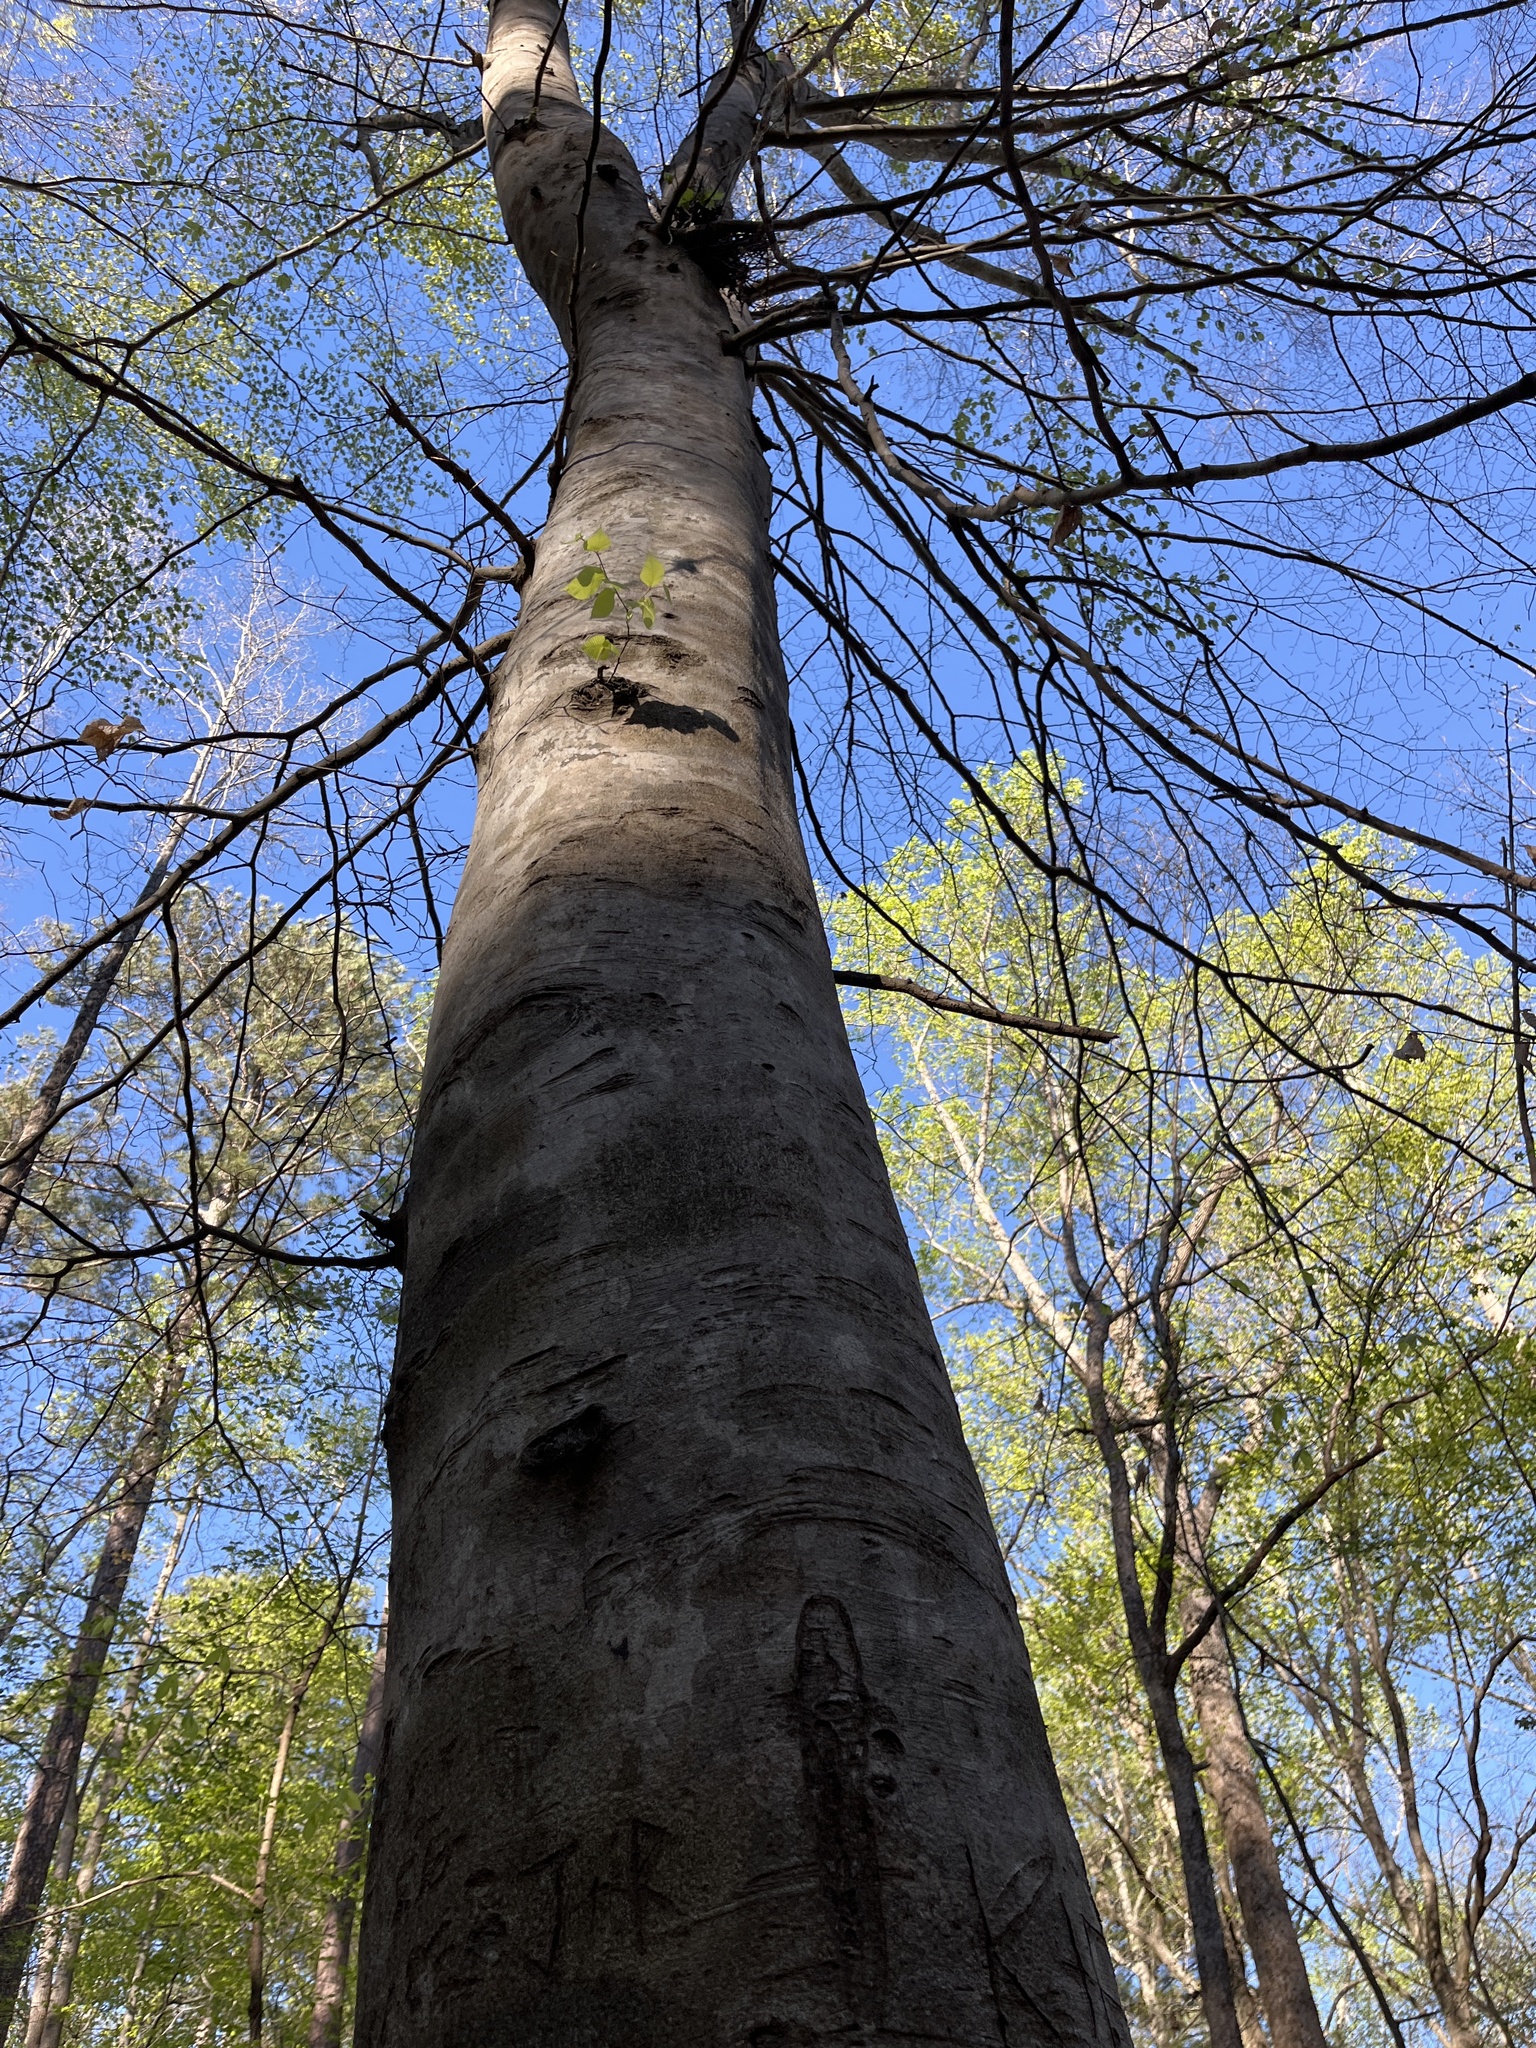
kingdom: Plantae
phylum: Tracheophyta
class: Magnoliopsida
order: Fagales
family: Fagaceae
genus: Fagus
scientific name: Fagus grandifolia
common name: American beech
